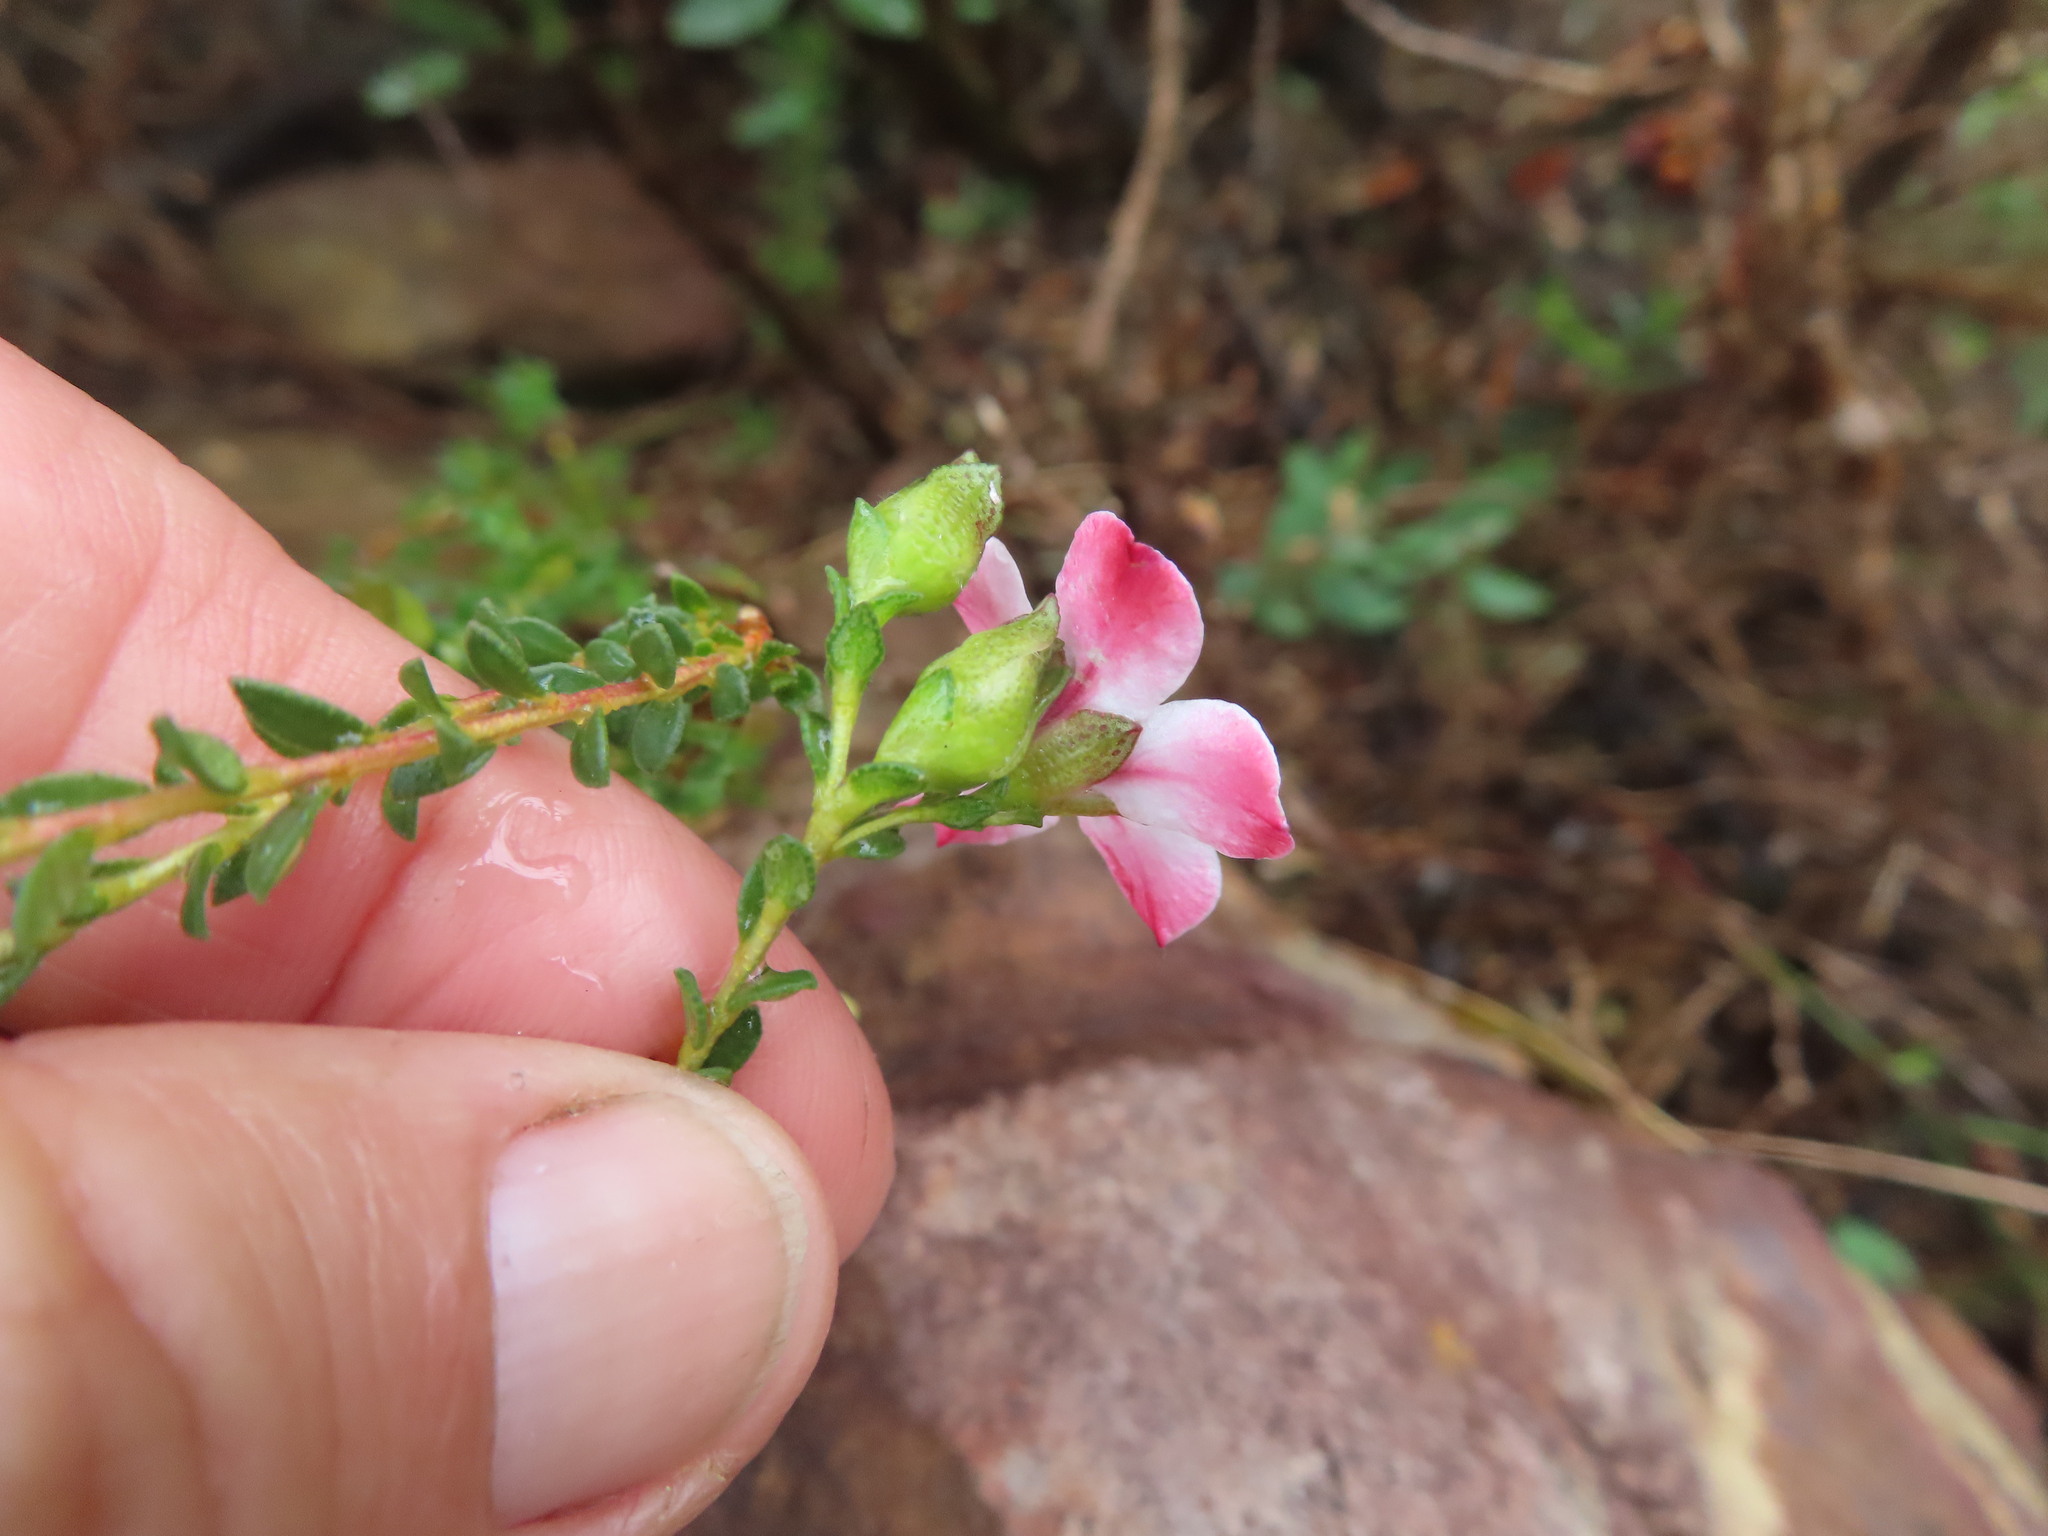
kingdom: Plantae
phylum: Tracheophyta
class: Magnoliopsida
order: Sapindales
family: Rutaceae
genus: Adenandra
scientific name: Adenandra uniflora
